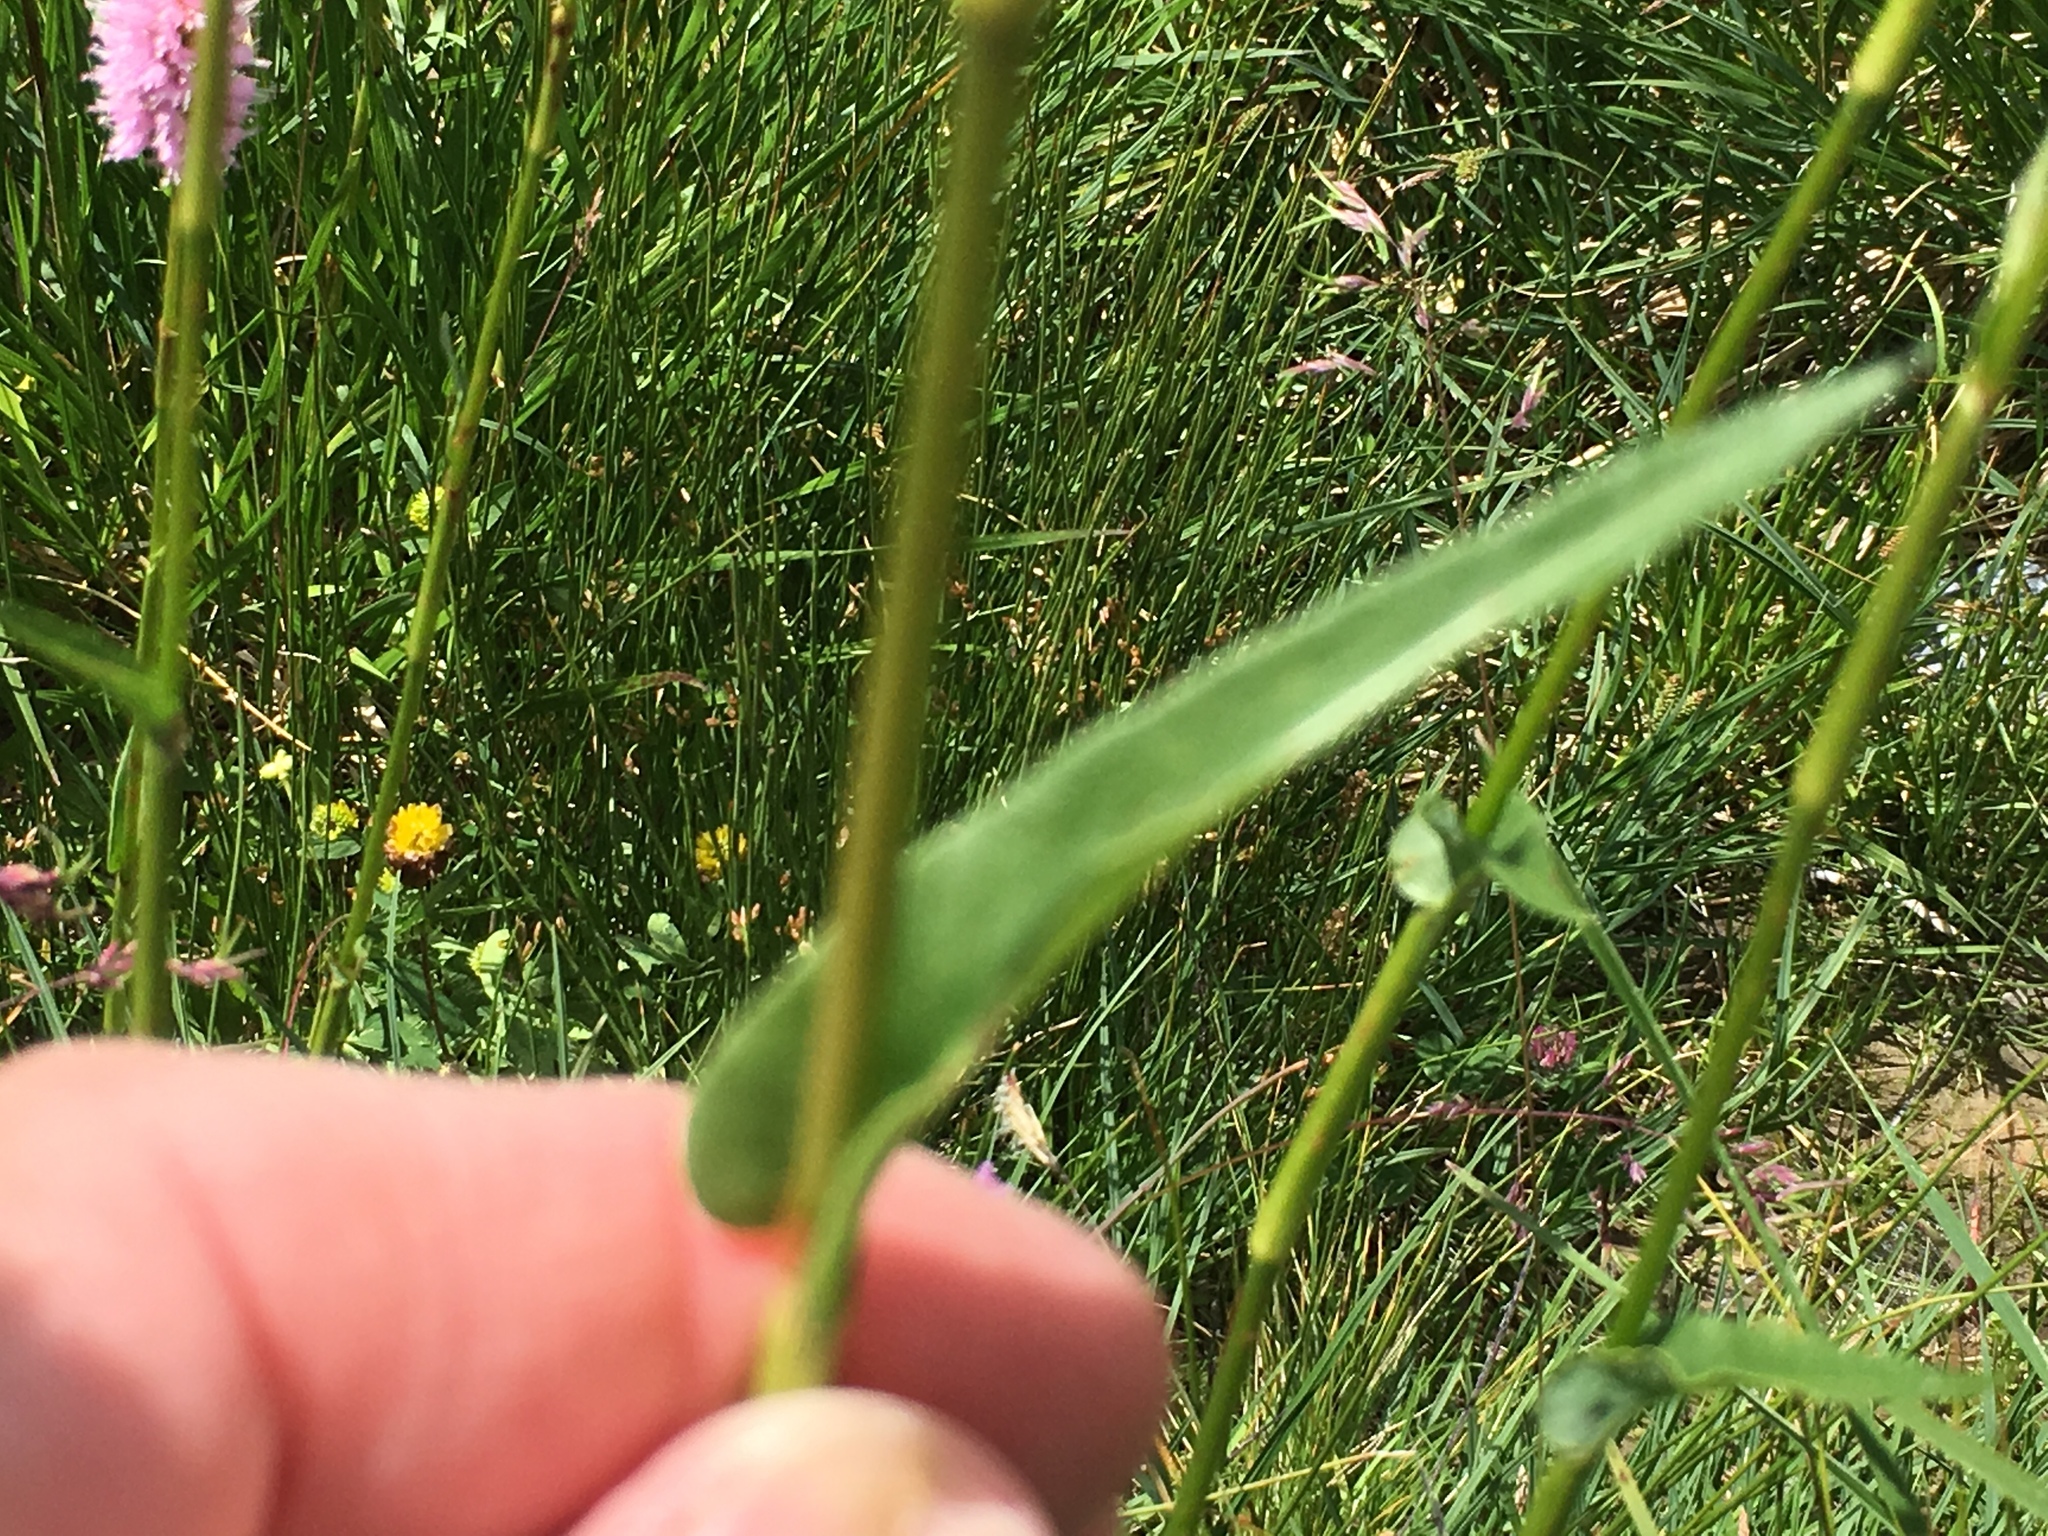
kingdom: Plantae
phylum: Tracheophyta
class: Magnoliopsida
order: Caryophyllales
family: Polygonaceae
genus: Bistorta
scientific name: Bistorta officinalis
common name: Common bistort
